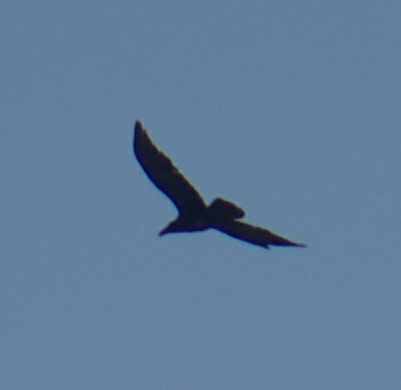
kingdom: Animalia
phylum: Chordata
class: Aves
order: Passeriformes
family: Corvidae
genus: Corvus
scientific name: Corvus corax
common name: Common raven
